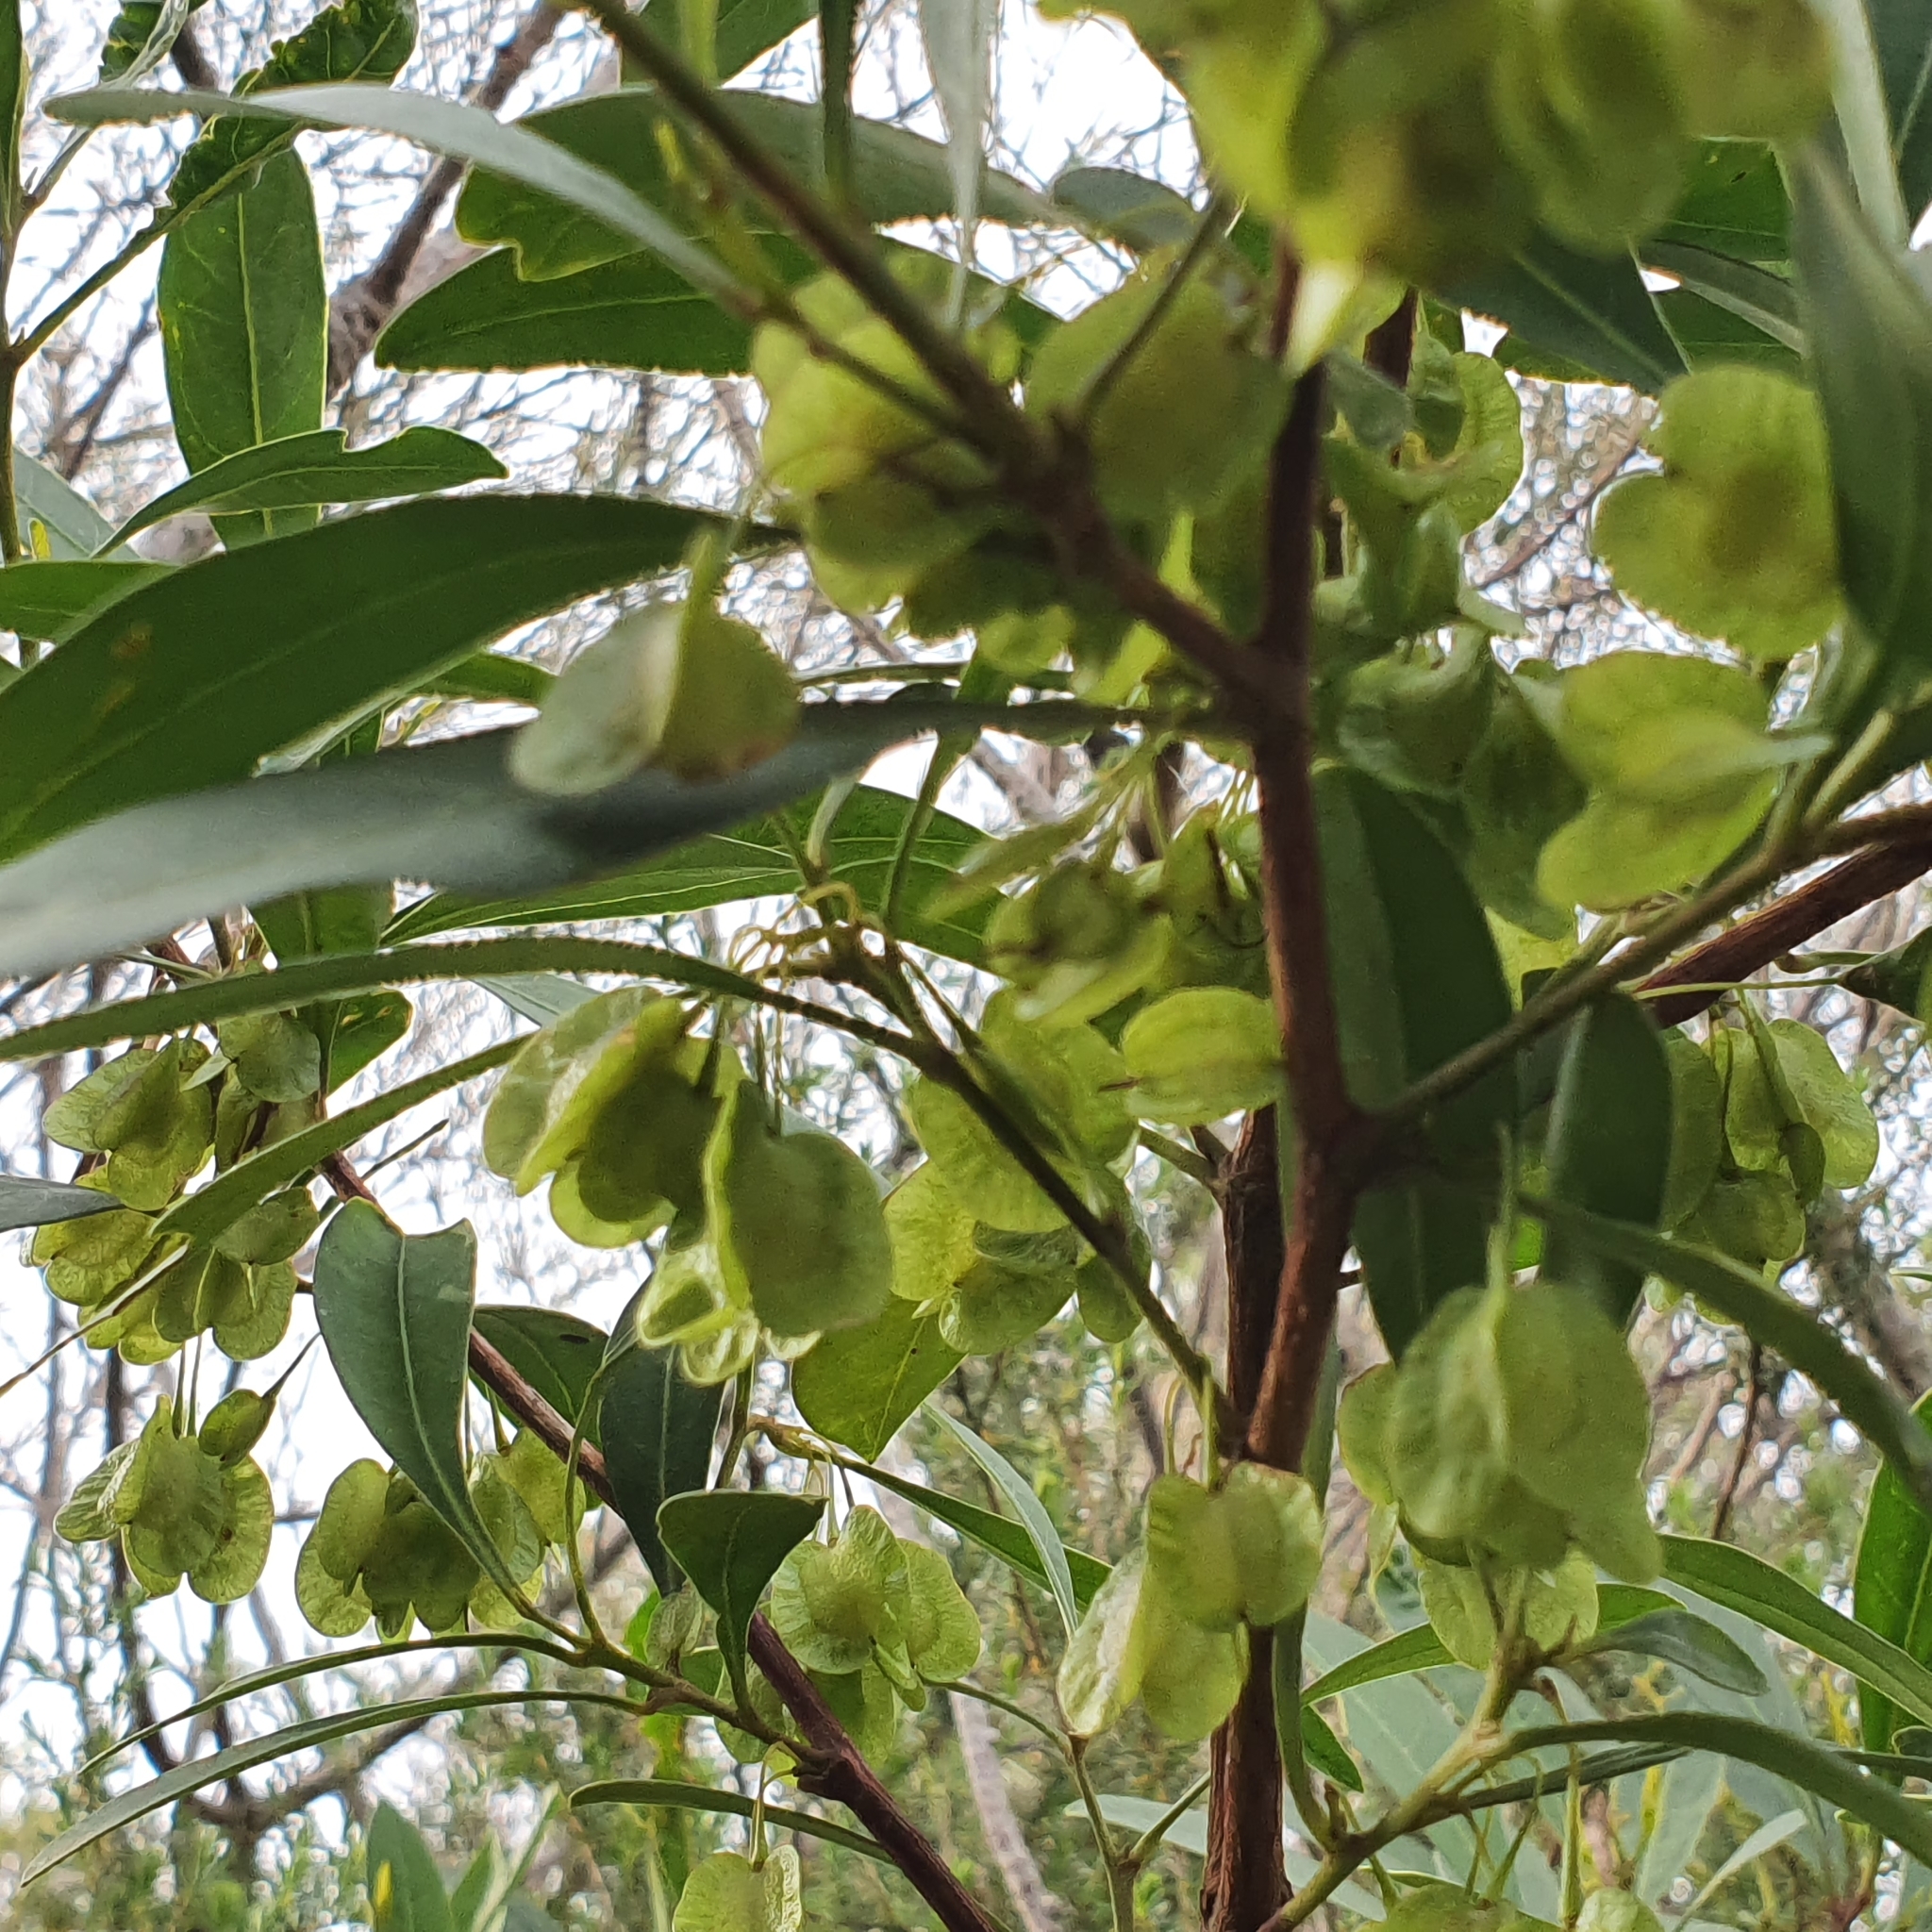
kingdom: Plantae
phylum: Tracheophyta
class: Magnoliopsida
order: Sapindales
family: Sapindaceae
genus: Dodonaea
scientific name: Dodonaea triquetra
